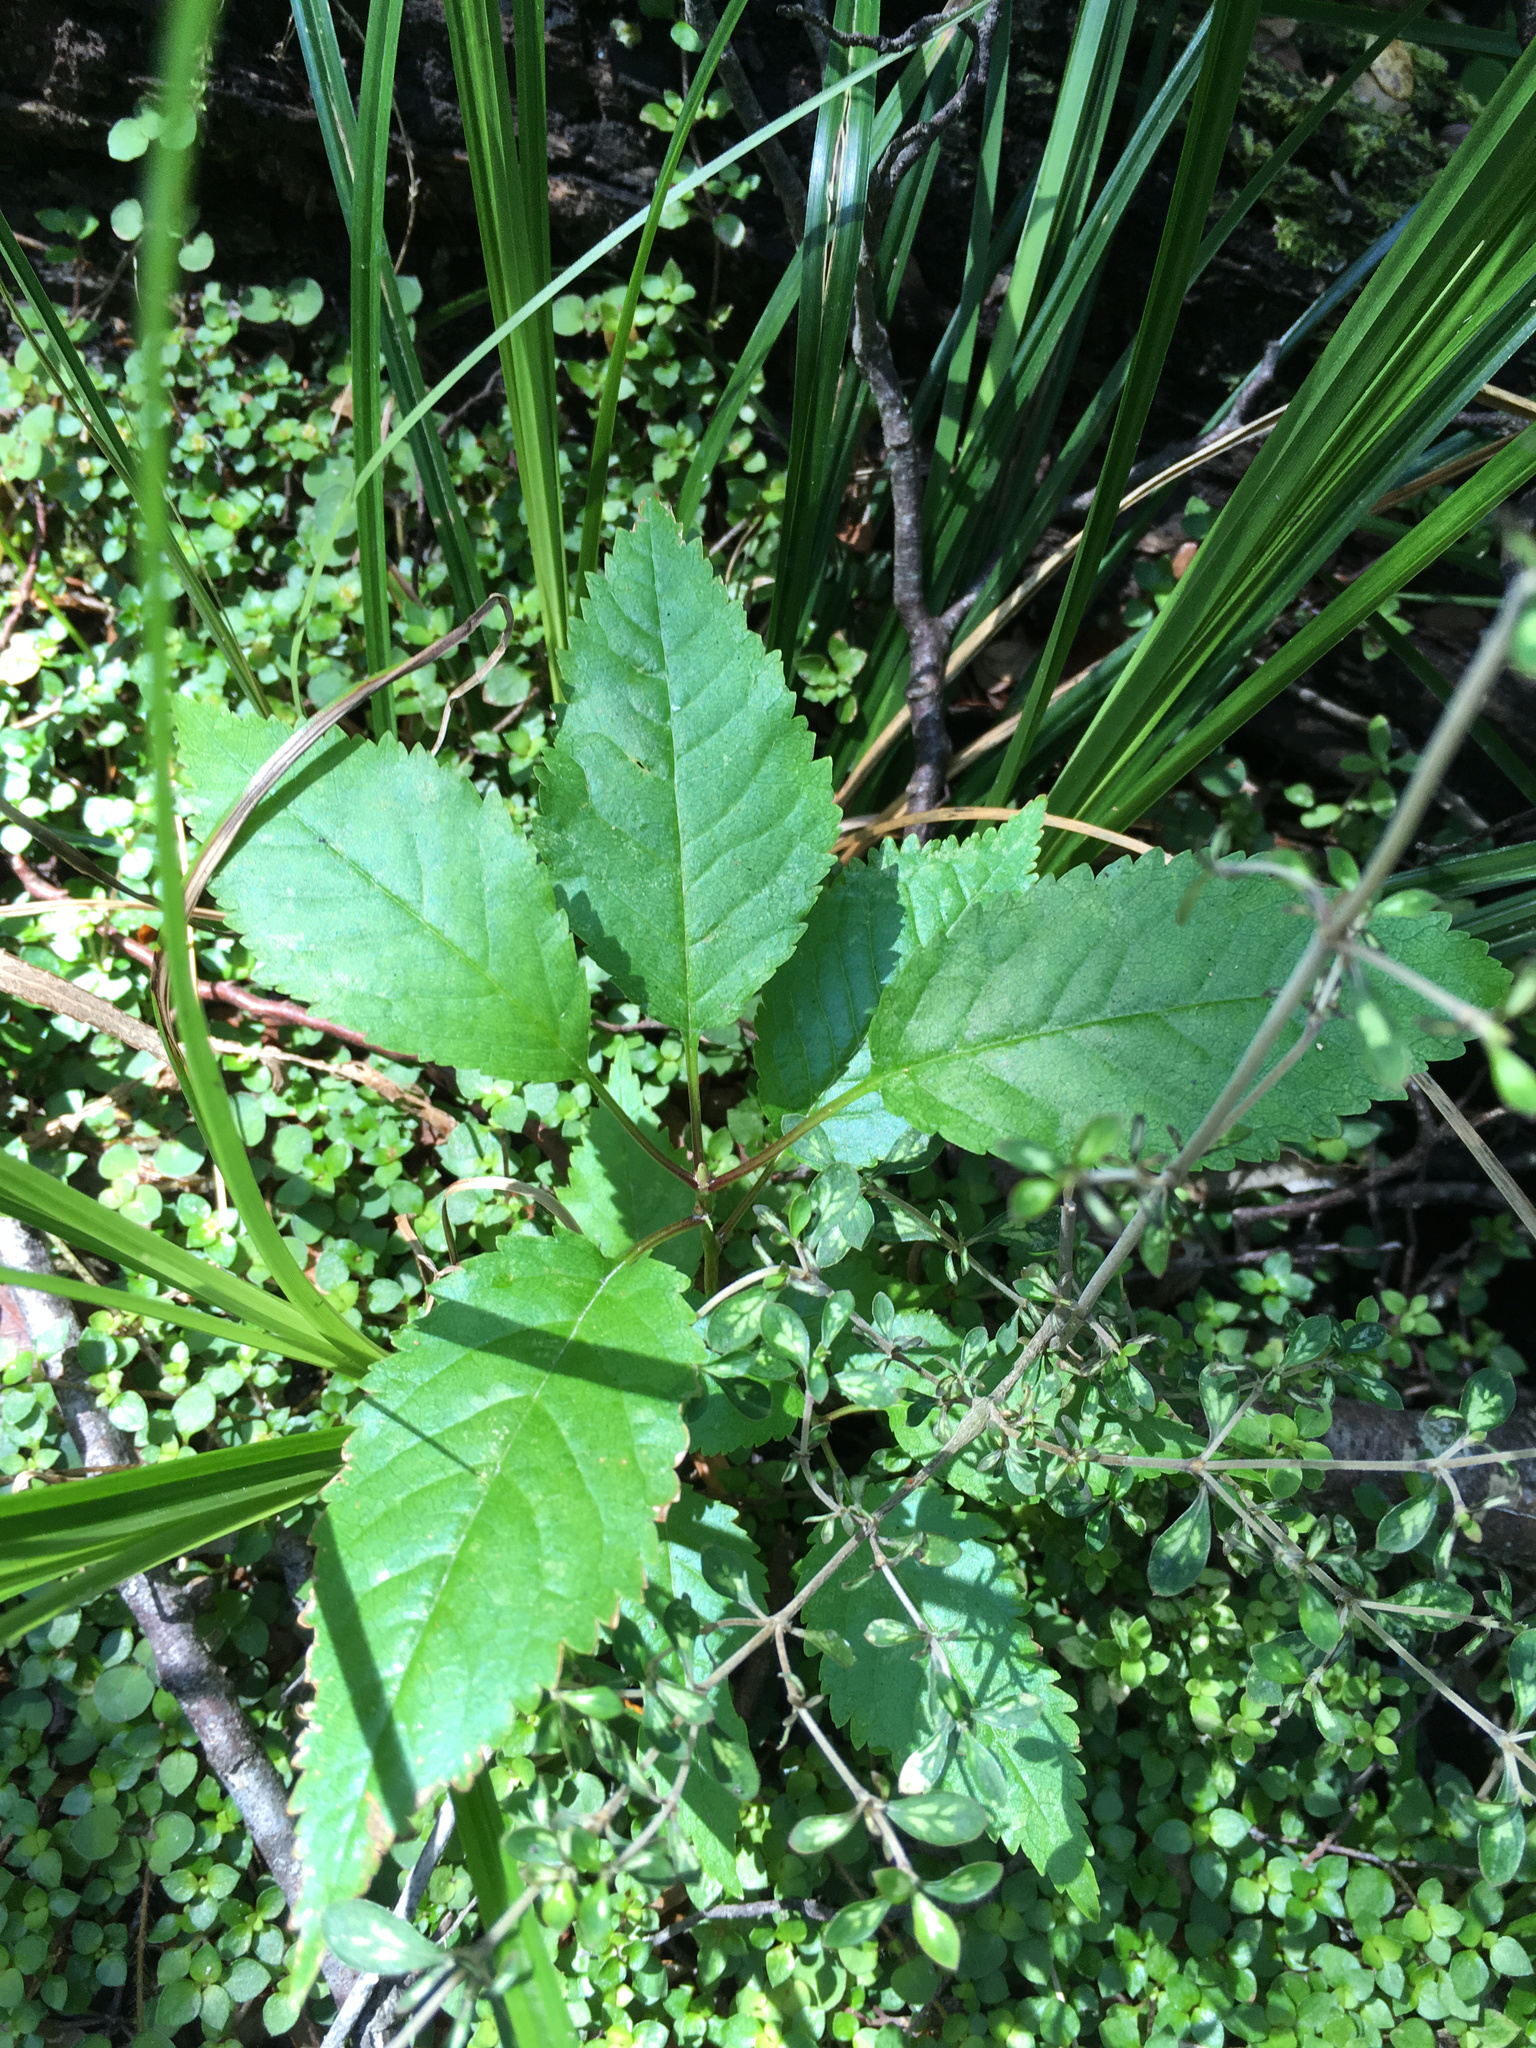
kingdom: Plantae
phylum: Tracheophyta
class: Magnoliopsida
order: Rosales
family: Rosaceae
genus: Prunus
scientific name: Prunus avium
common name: Sweet cherry
